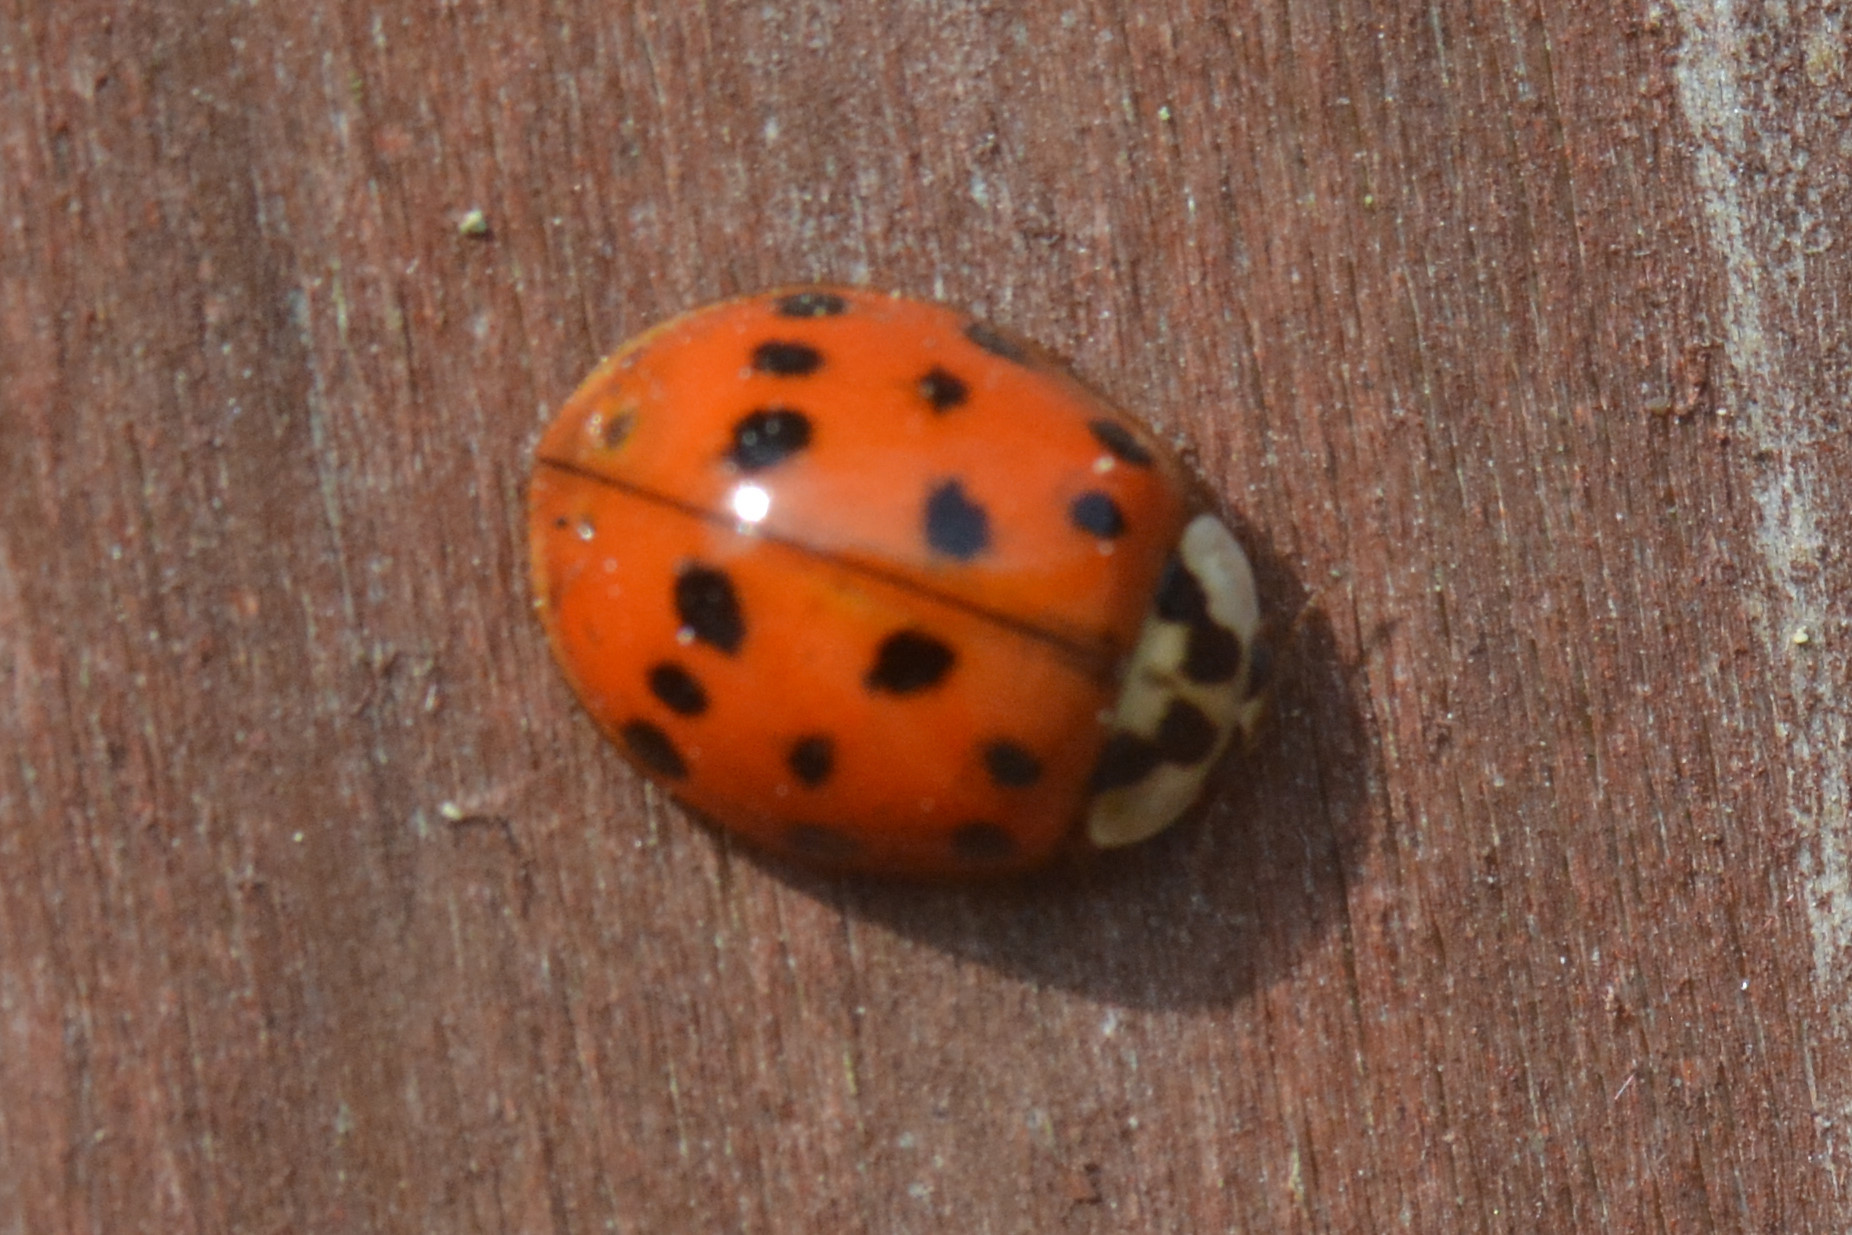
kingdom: Animalia
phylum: Arthropoda
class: Insecta
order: Coleoptera
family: Coccinellidae
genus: Harmonia
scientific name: Harmonia axyridis
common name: Harlequin ladybird
